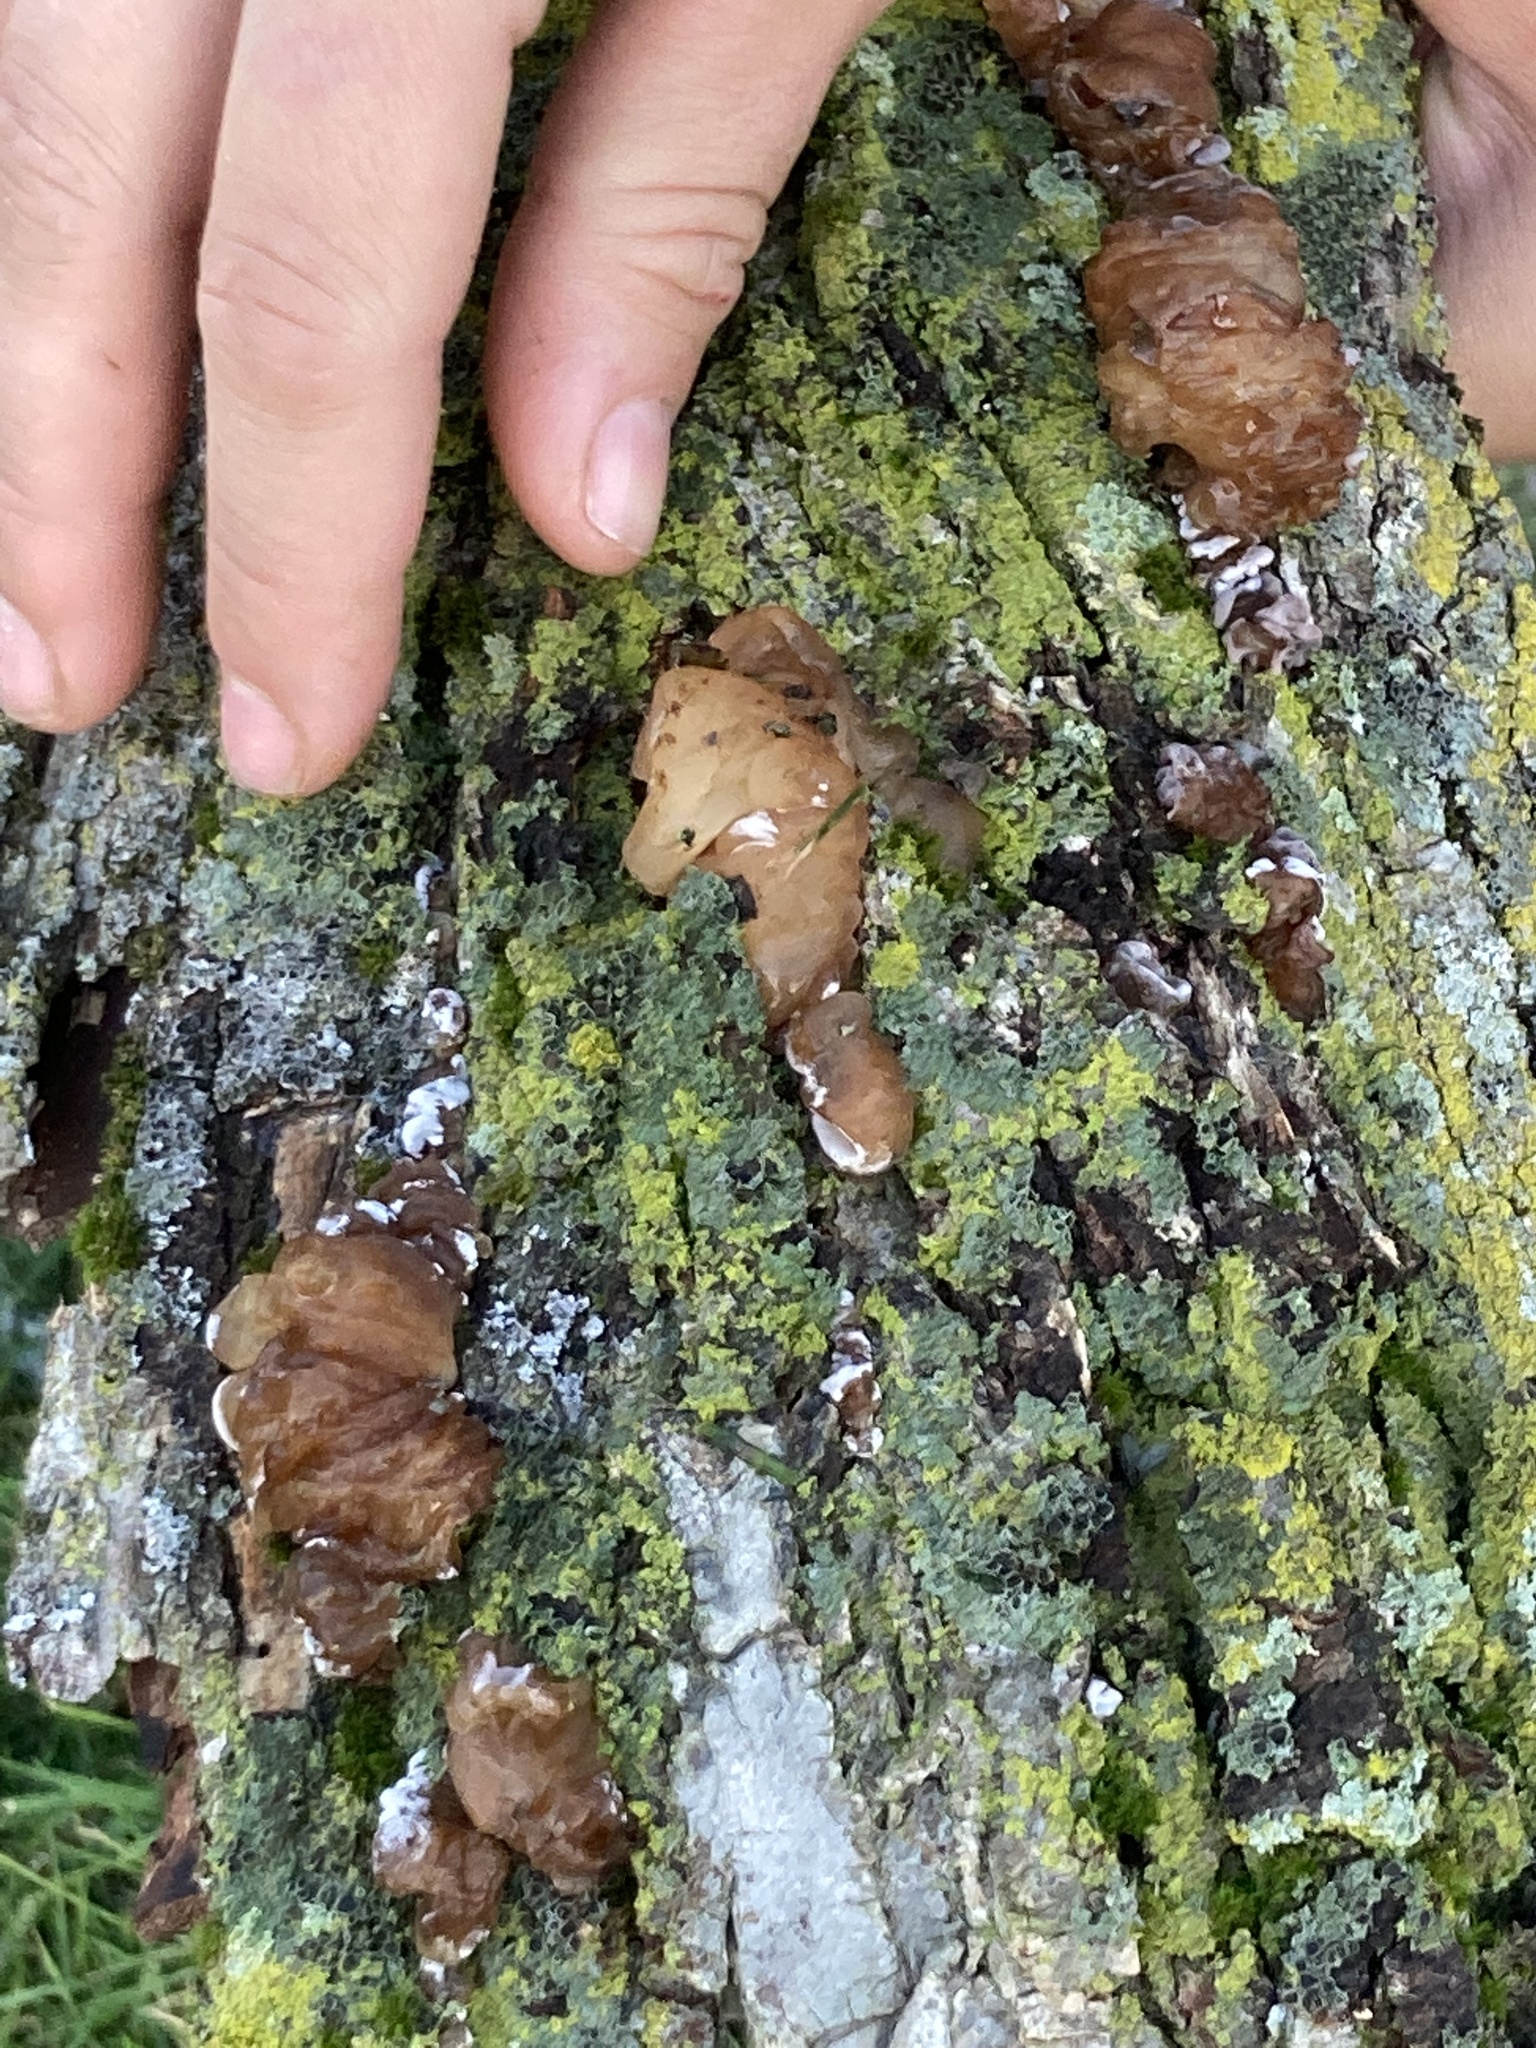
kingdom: Fungi
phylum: Basidiomycota
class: Agaricomycetes
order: Auriculariales
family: Auriculariaceae
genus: Auricularia
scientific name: Auricularia americana
